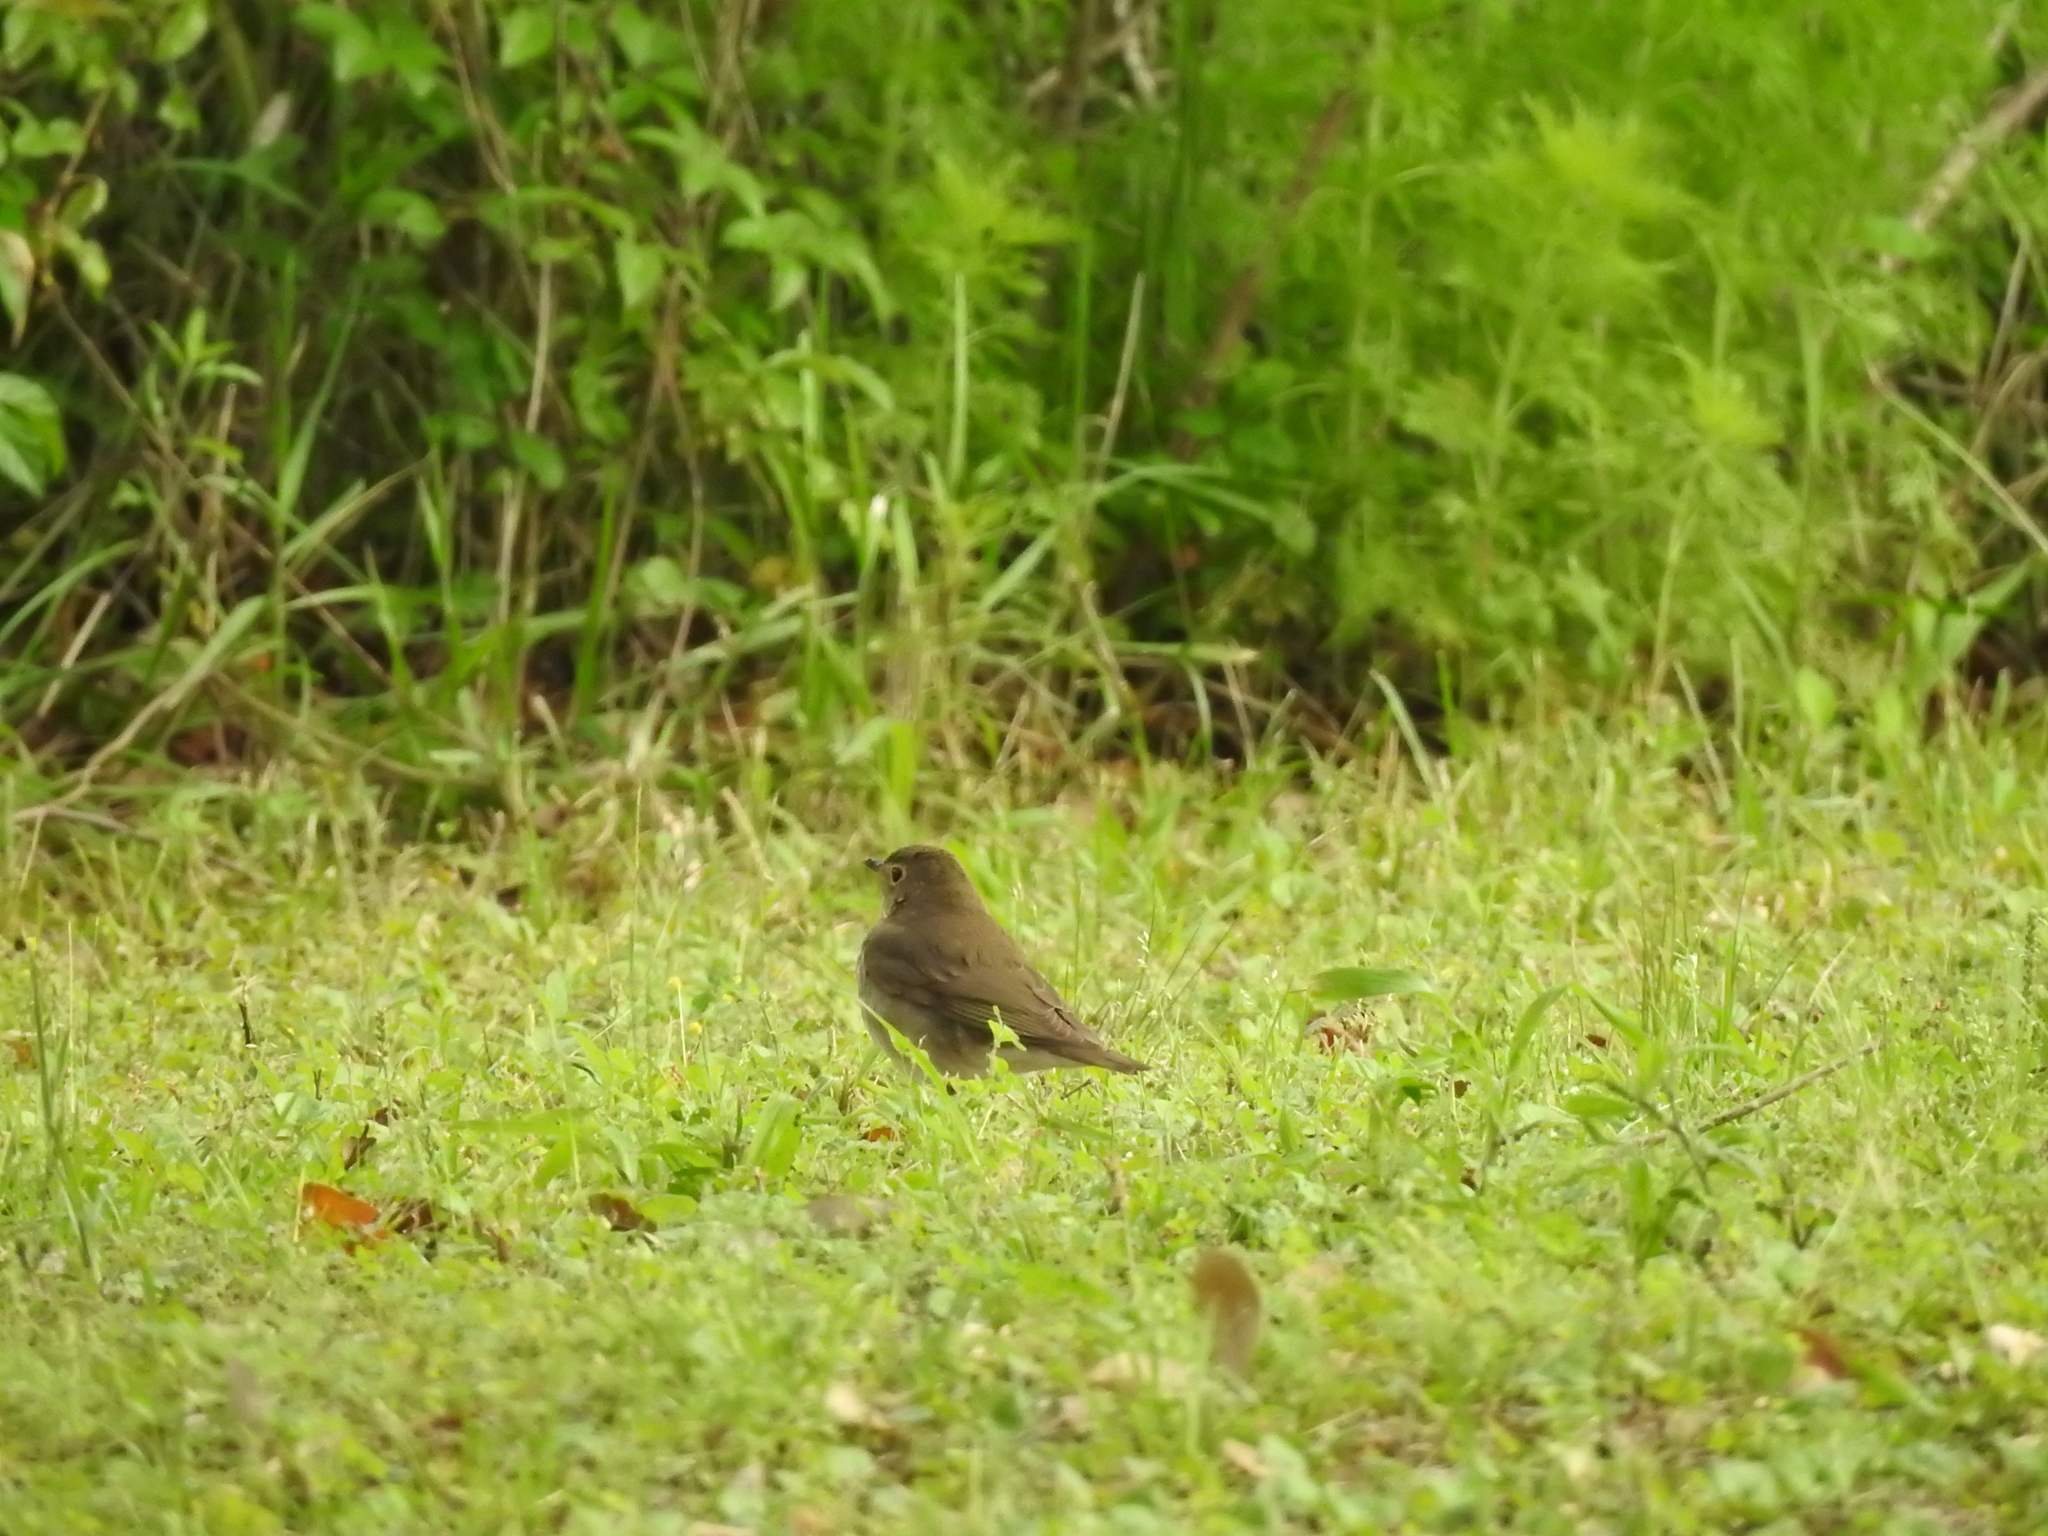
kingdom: Animalia
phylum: Chordata
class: Aves
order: Passeriformes
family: Turdidae
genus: Catharus
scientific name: Catharus ustulatus
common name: Swainson's thrush
